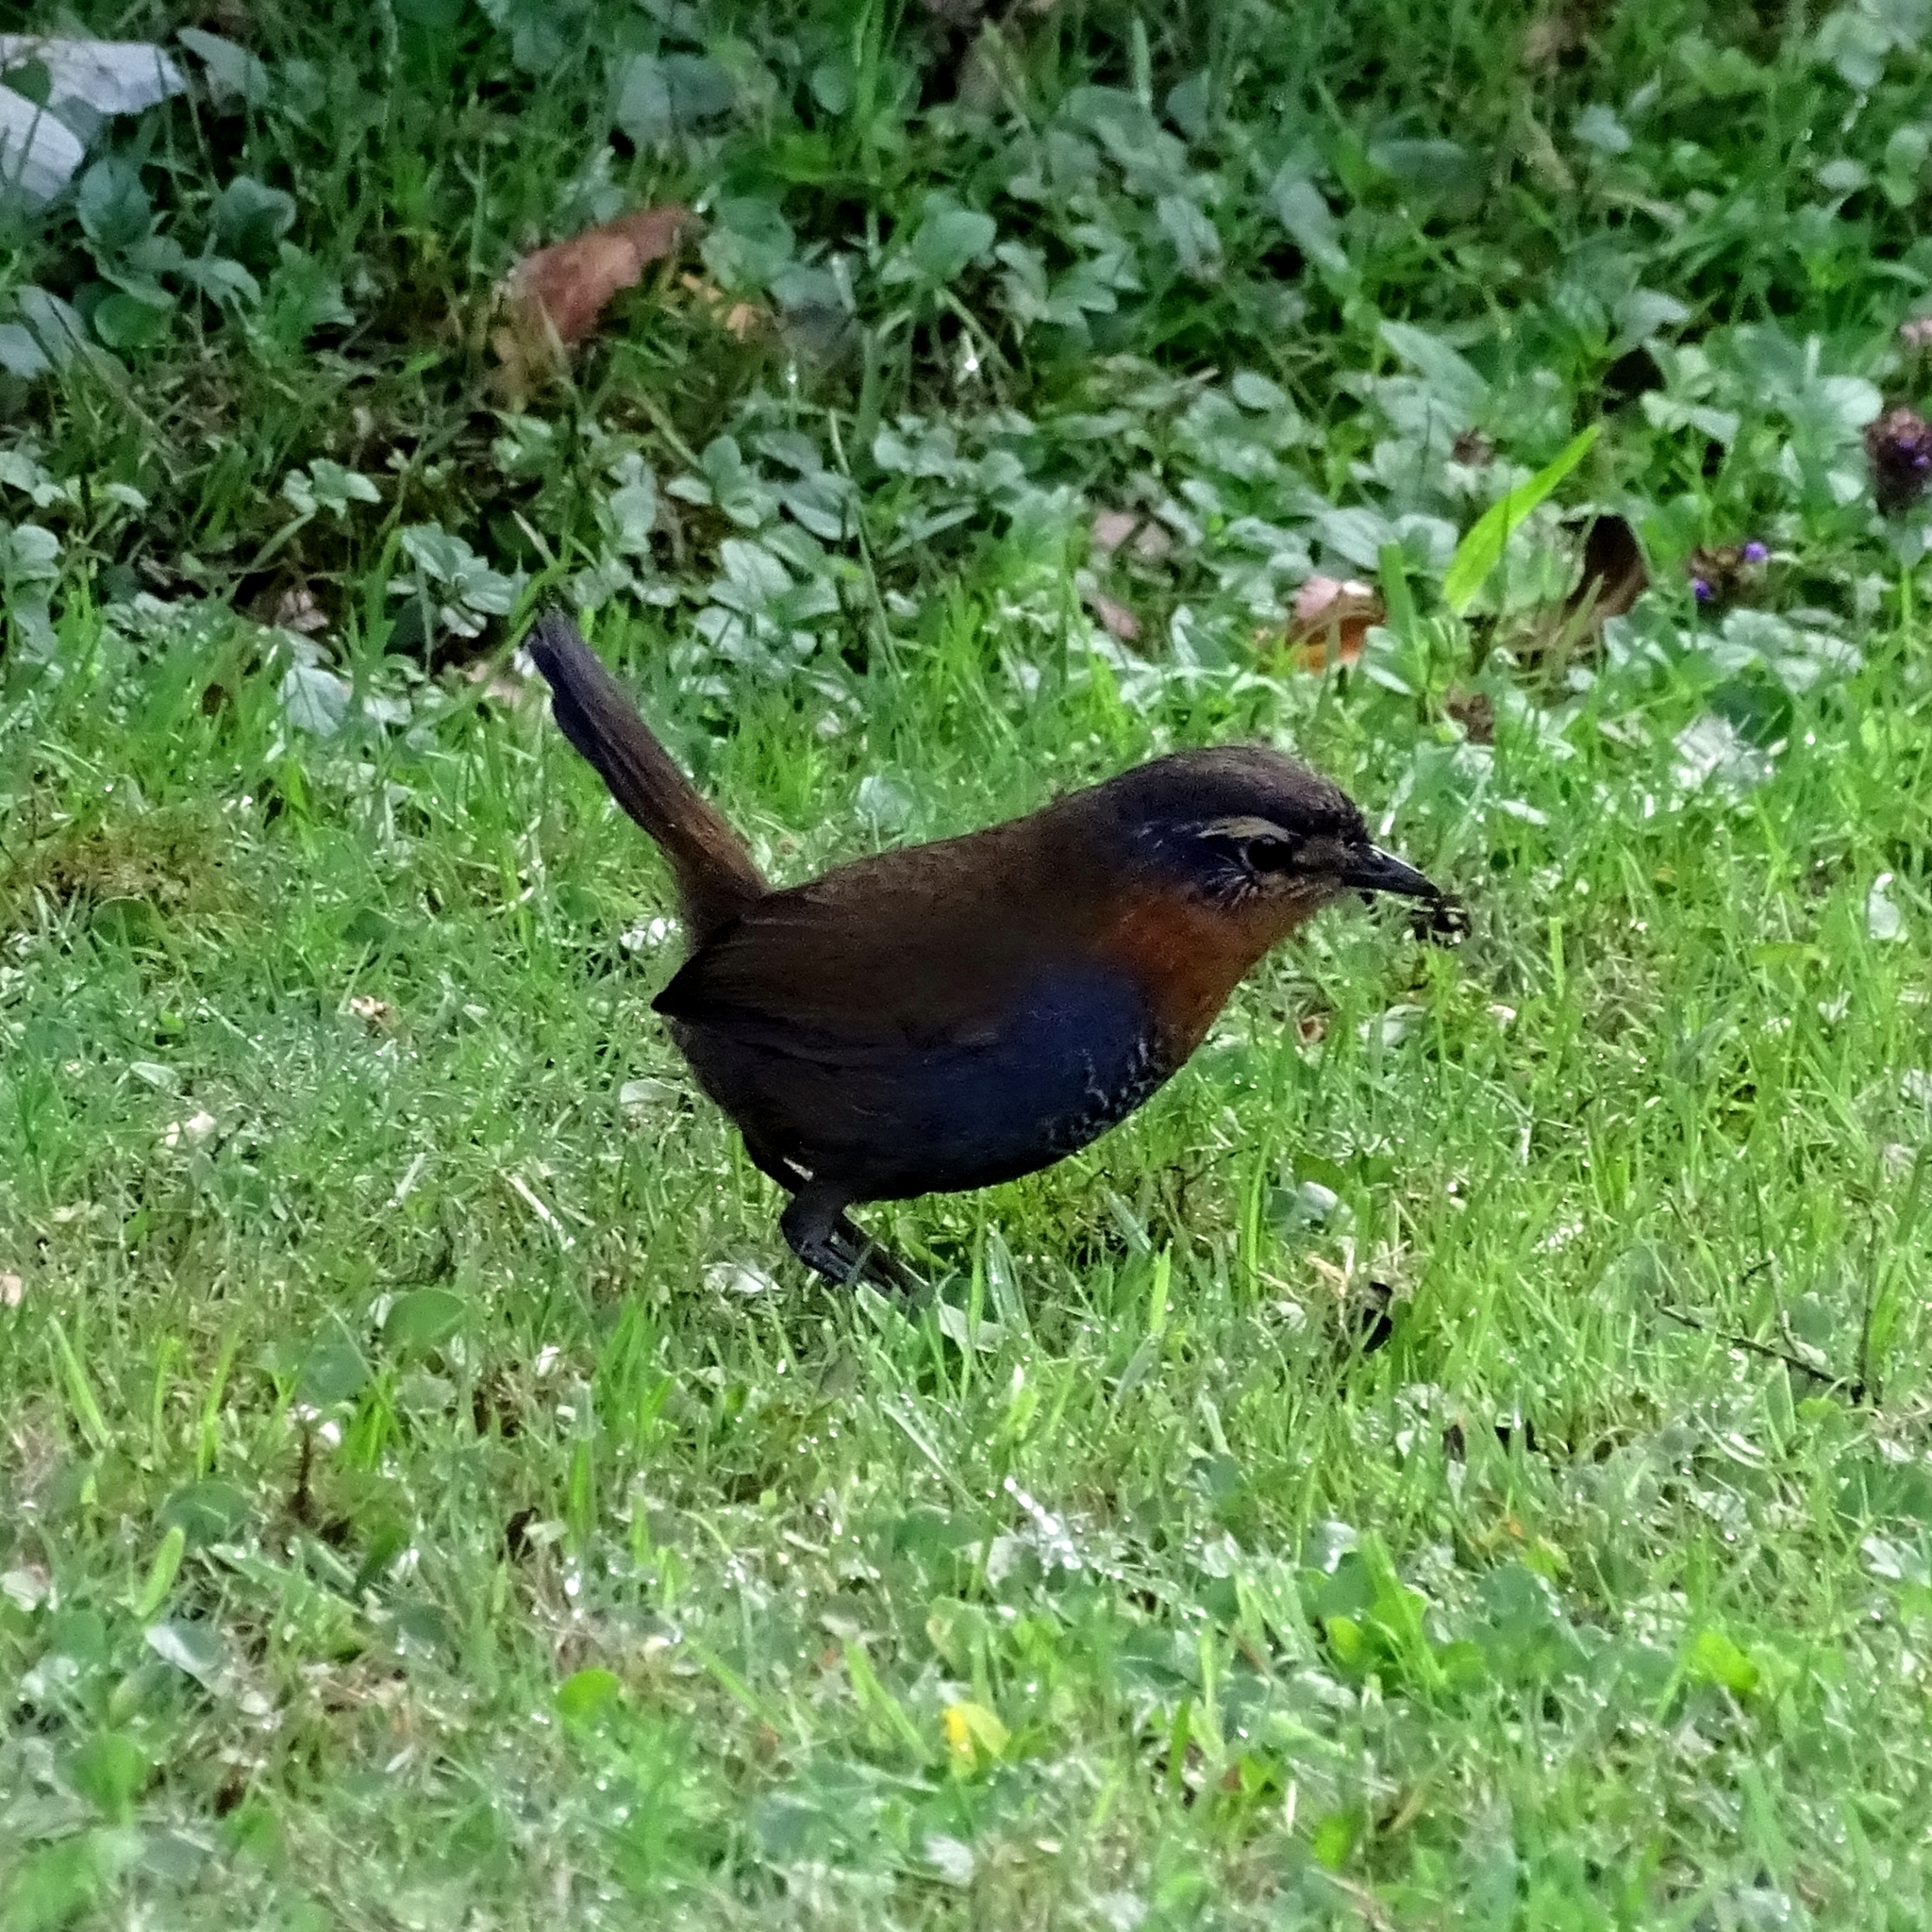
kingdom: Animalia
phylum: Chordata
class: Aves
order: Passeriformes
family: Rhinocryptidae
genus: Scelorchilus
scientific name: Scelorchilus rubecula
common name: Chucao tapaculo
